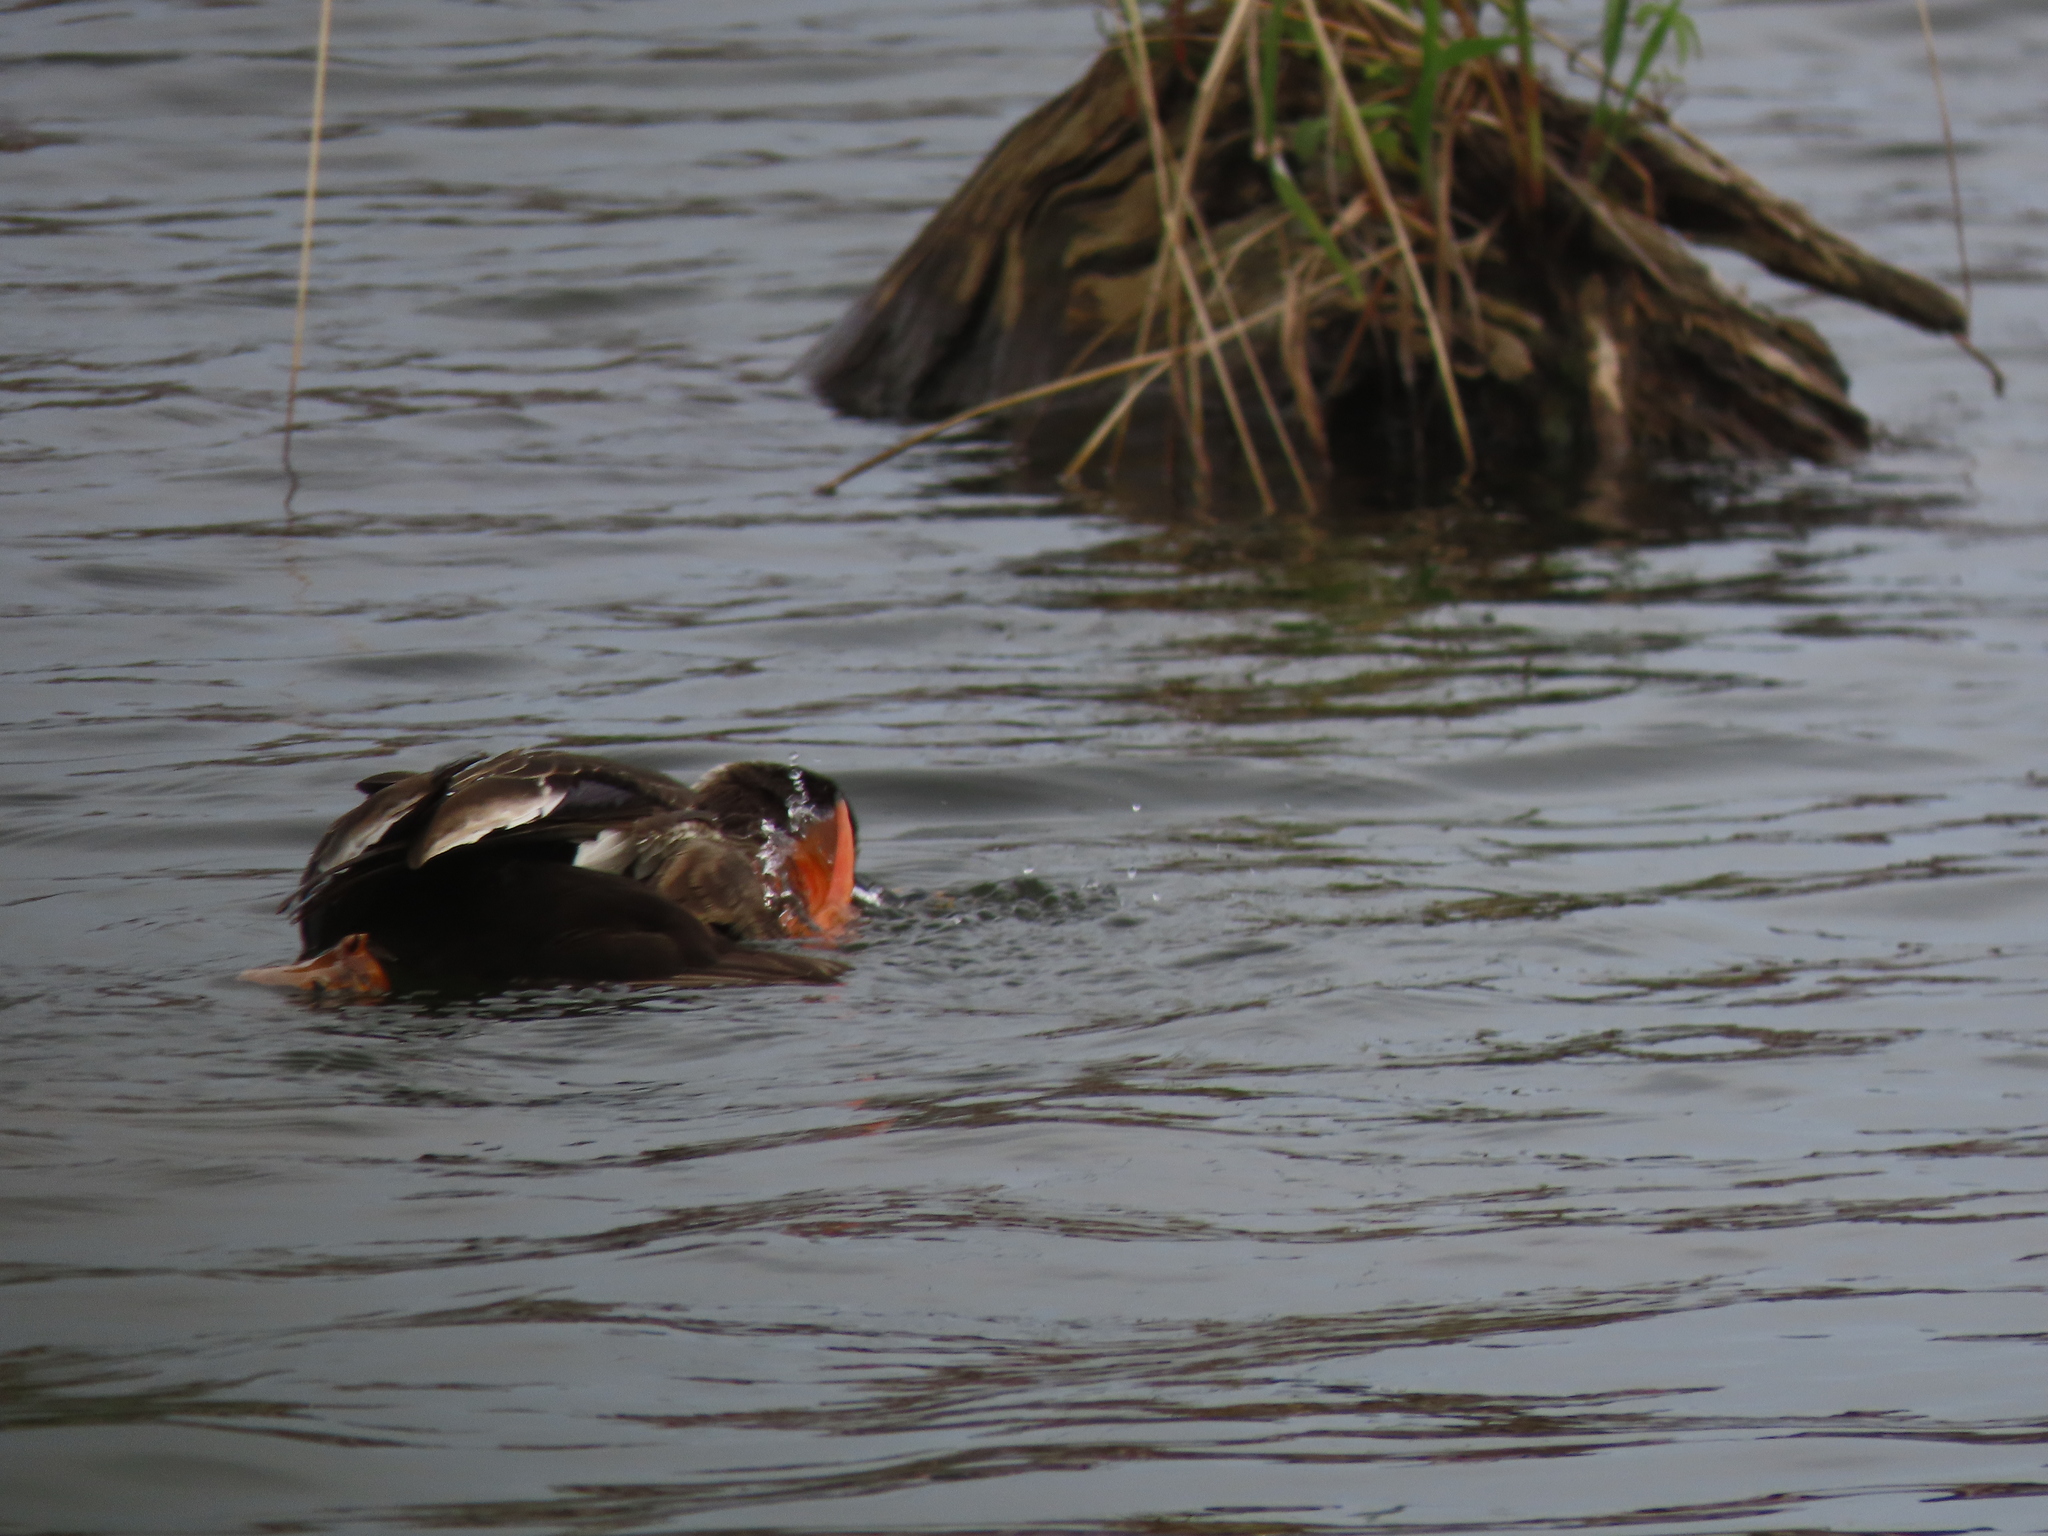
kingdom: Animalia
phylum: Chordata
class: Aves
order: Anseriformes
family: Anatidae
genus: Anas
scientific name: Anas zonorhyncha
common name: Eastern spot-billed duck
